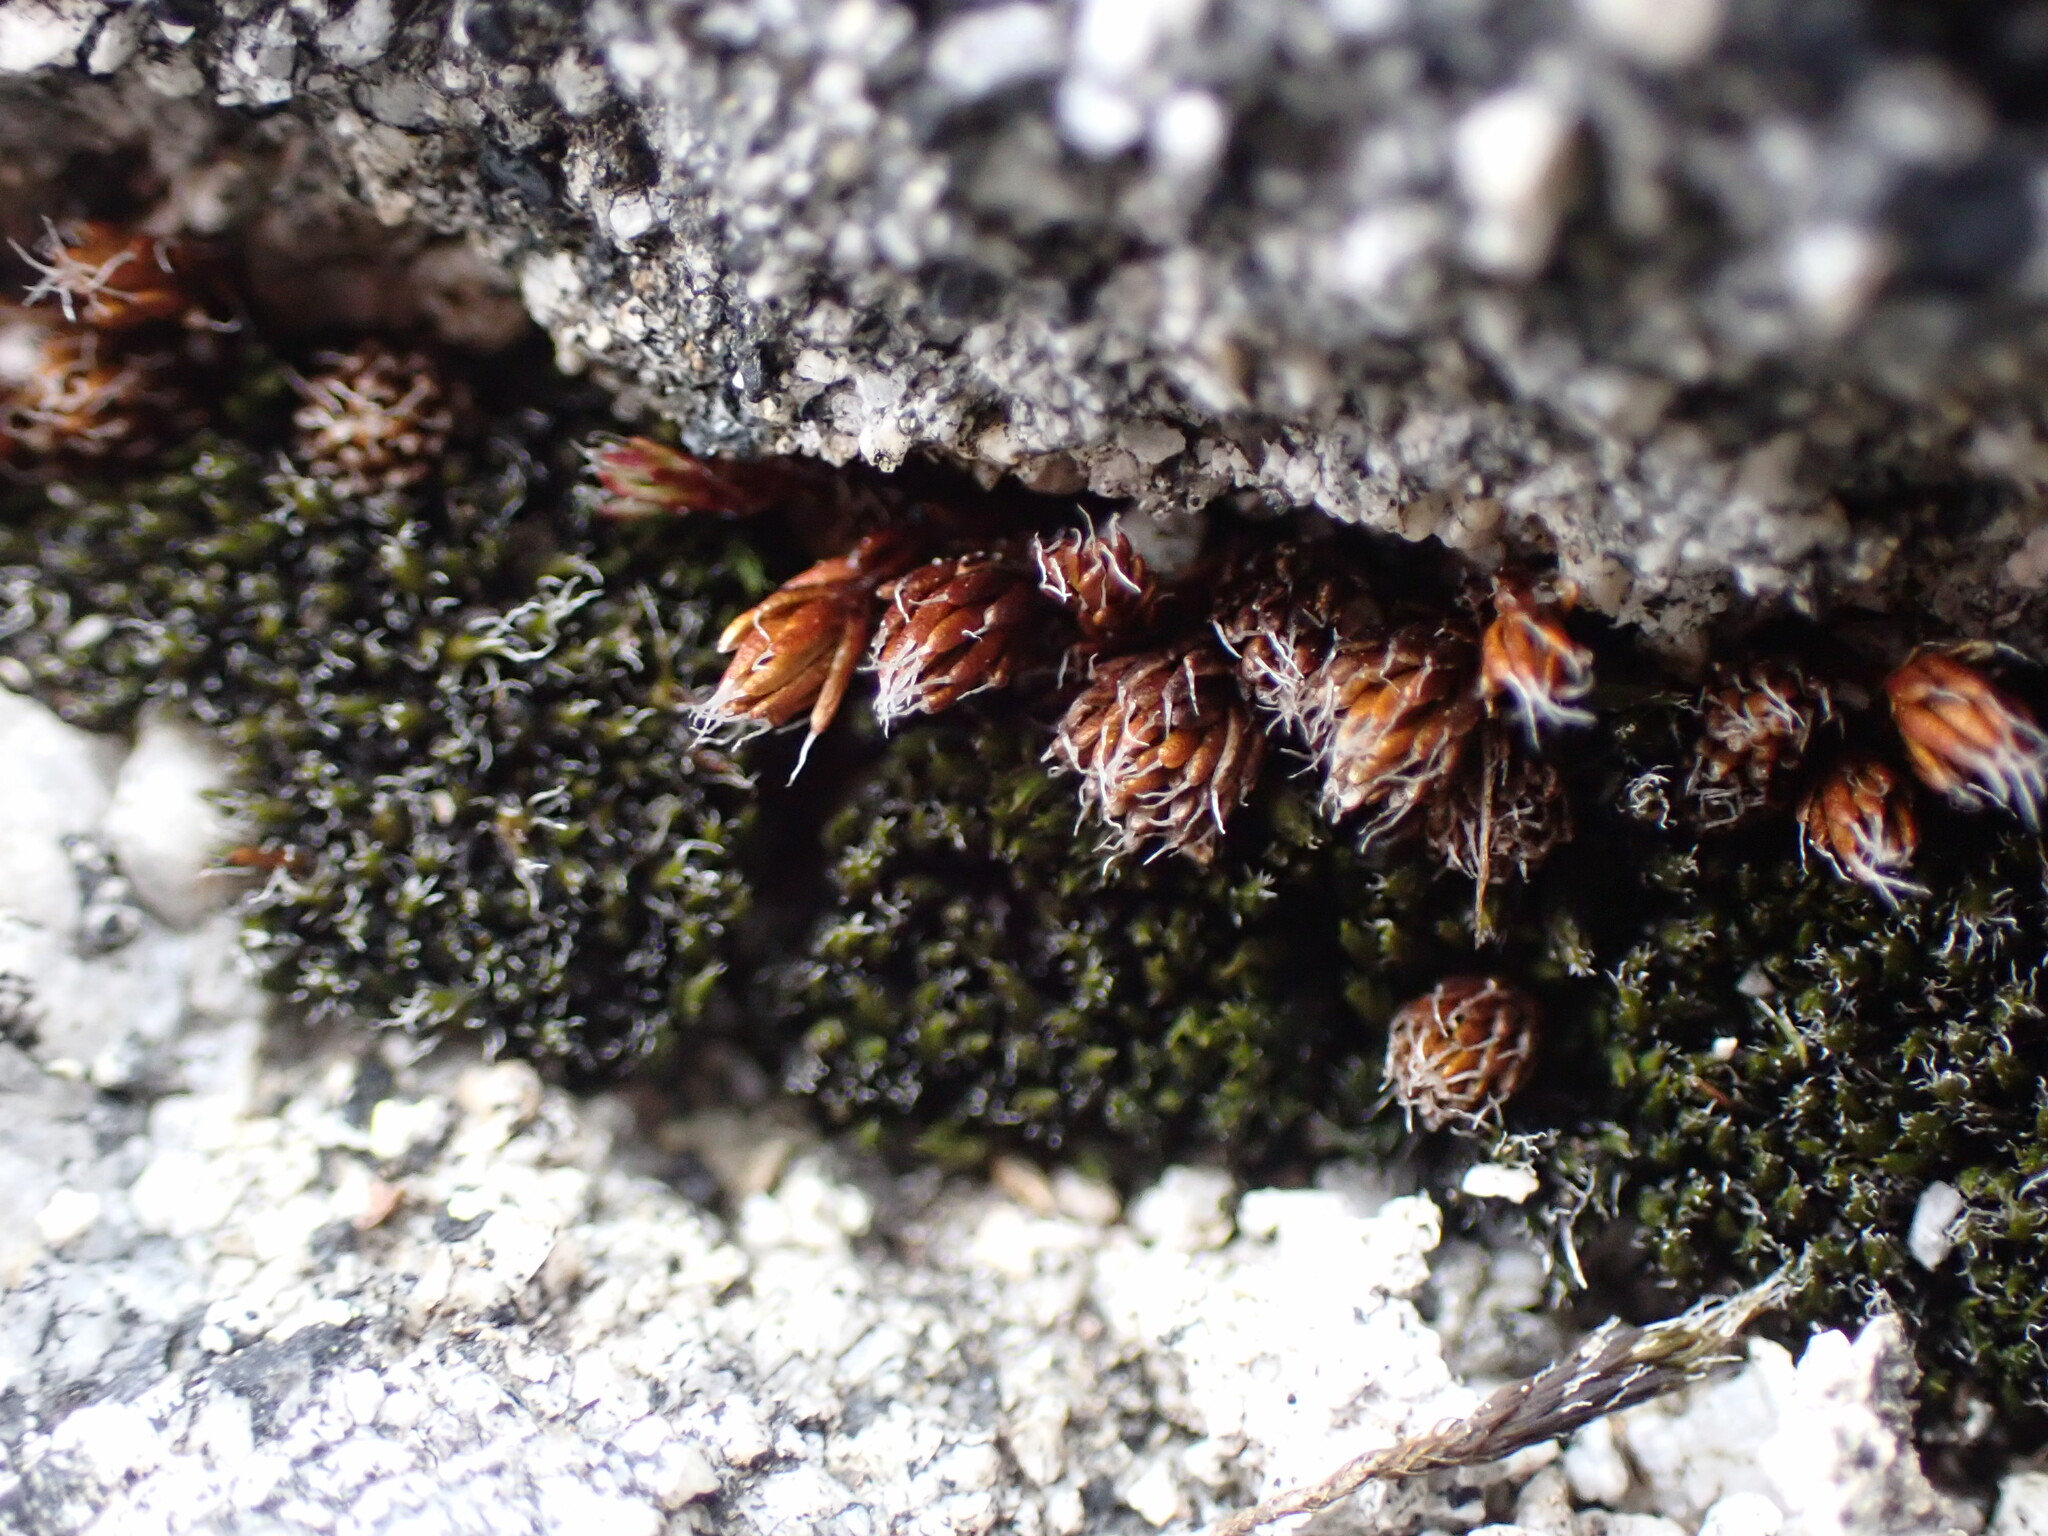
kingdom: Plantae
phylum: Bryophyta
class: Polytrichopsida
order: Polytrichales
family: Polytrichaceae
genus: Polytrichum
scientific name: Polytrichum piliferum
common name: Bristly haircap
